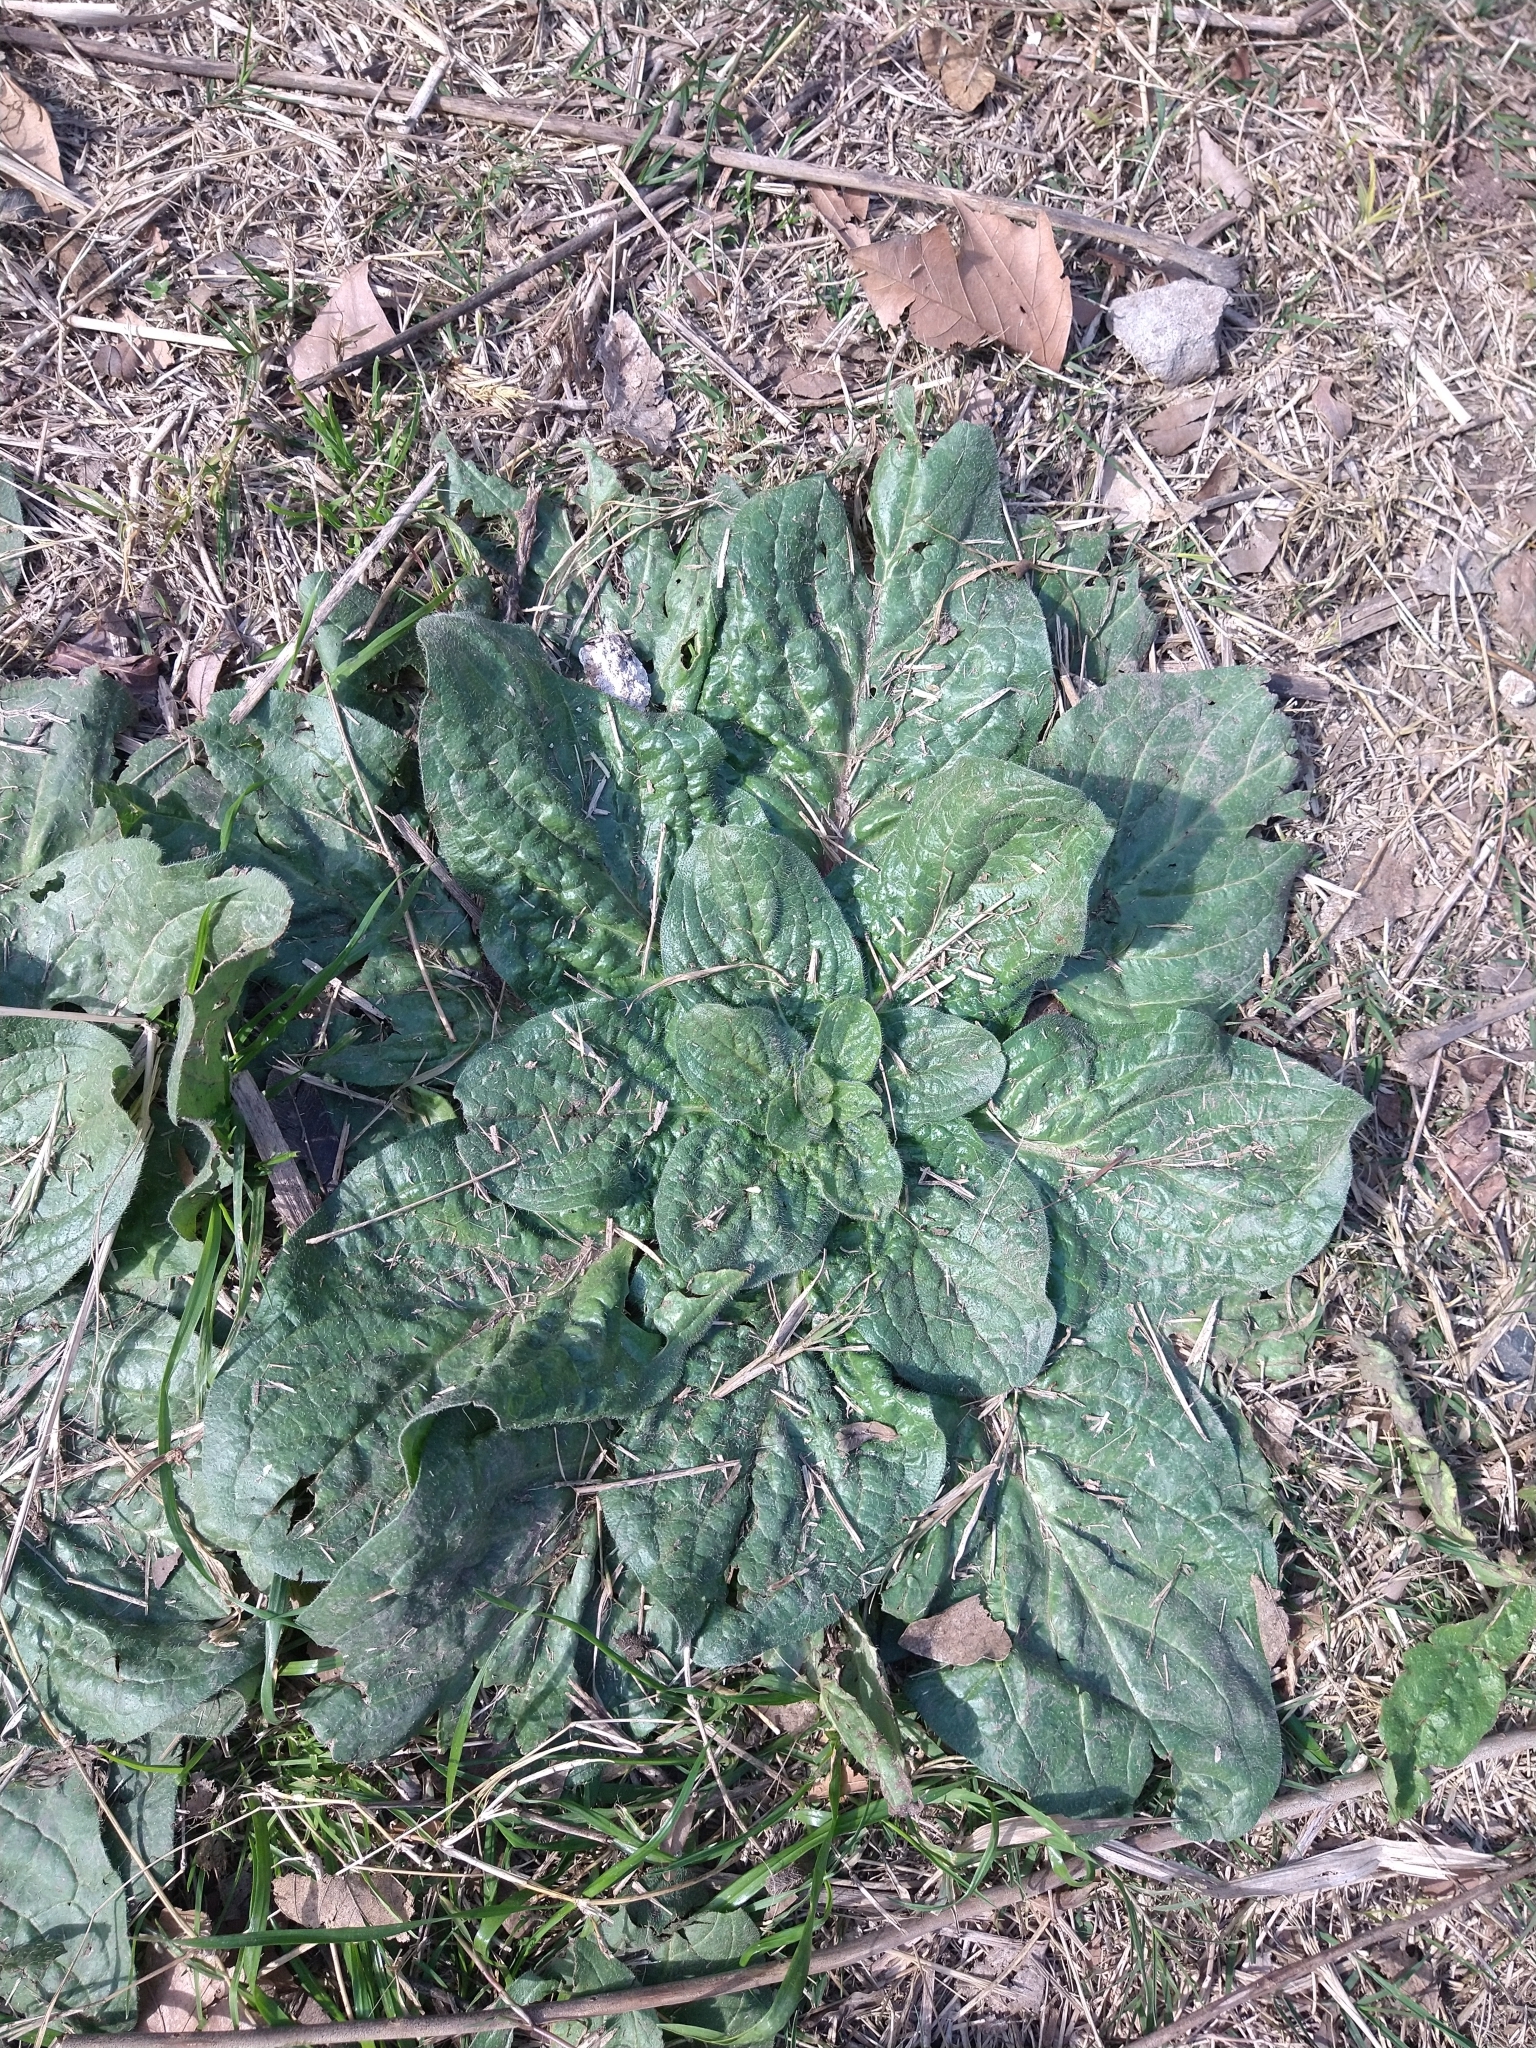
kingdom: Plantae
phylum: Tracheophyta
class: Magnoliopsida
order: Boraginales
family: Boraginaceae
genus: Echium
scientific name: Echium plantagineum
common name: Purple viper's-bugloss
